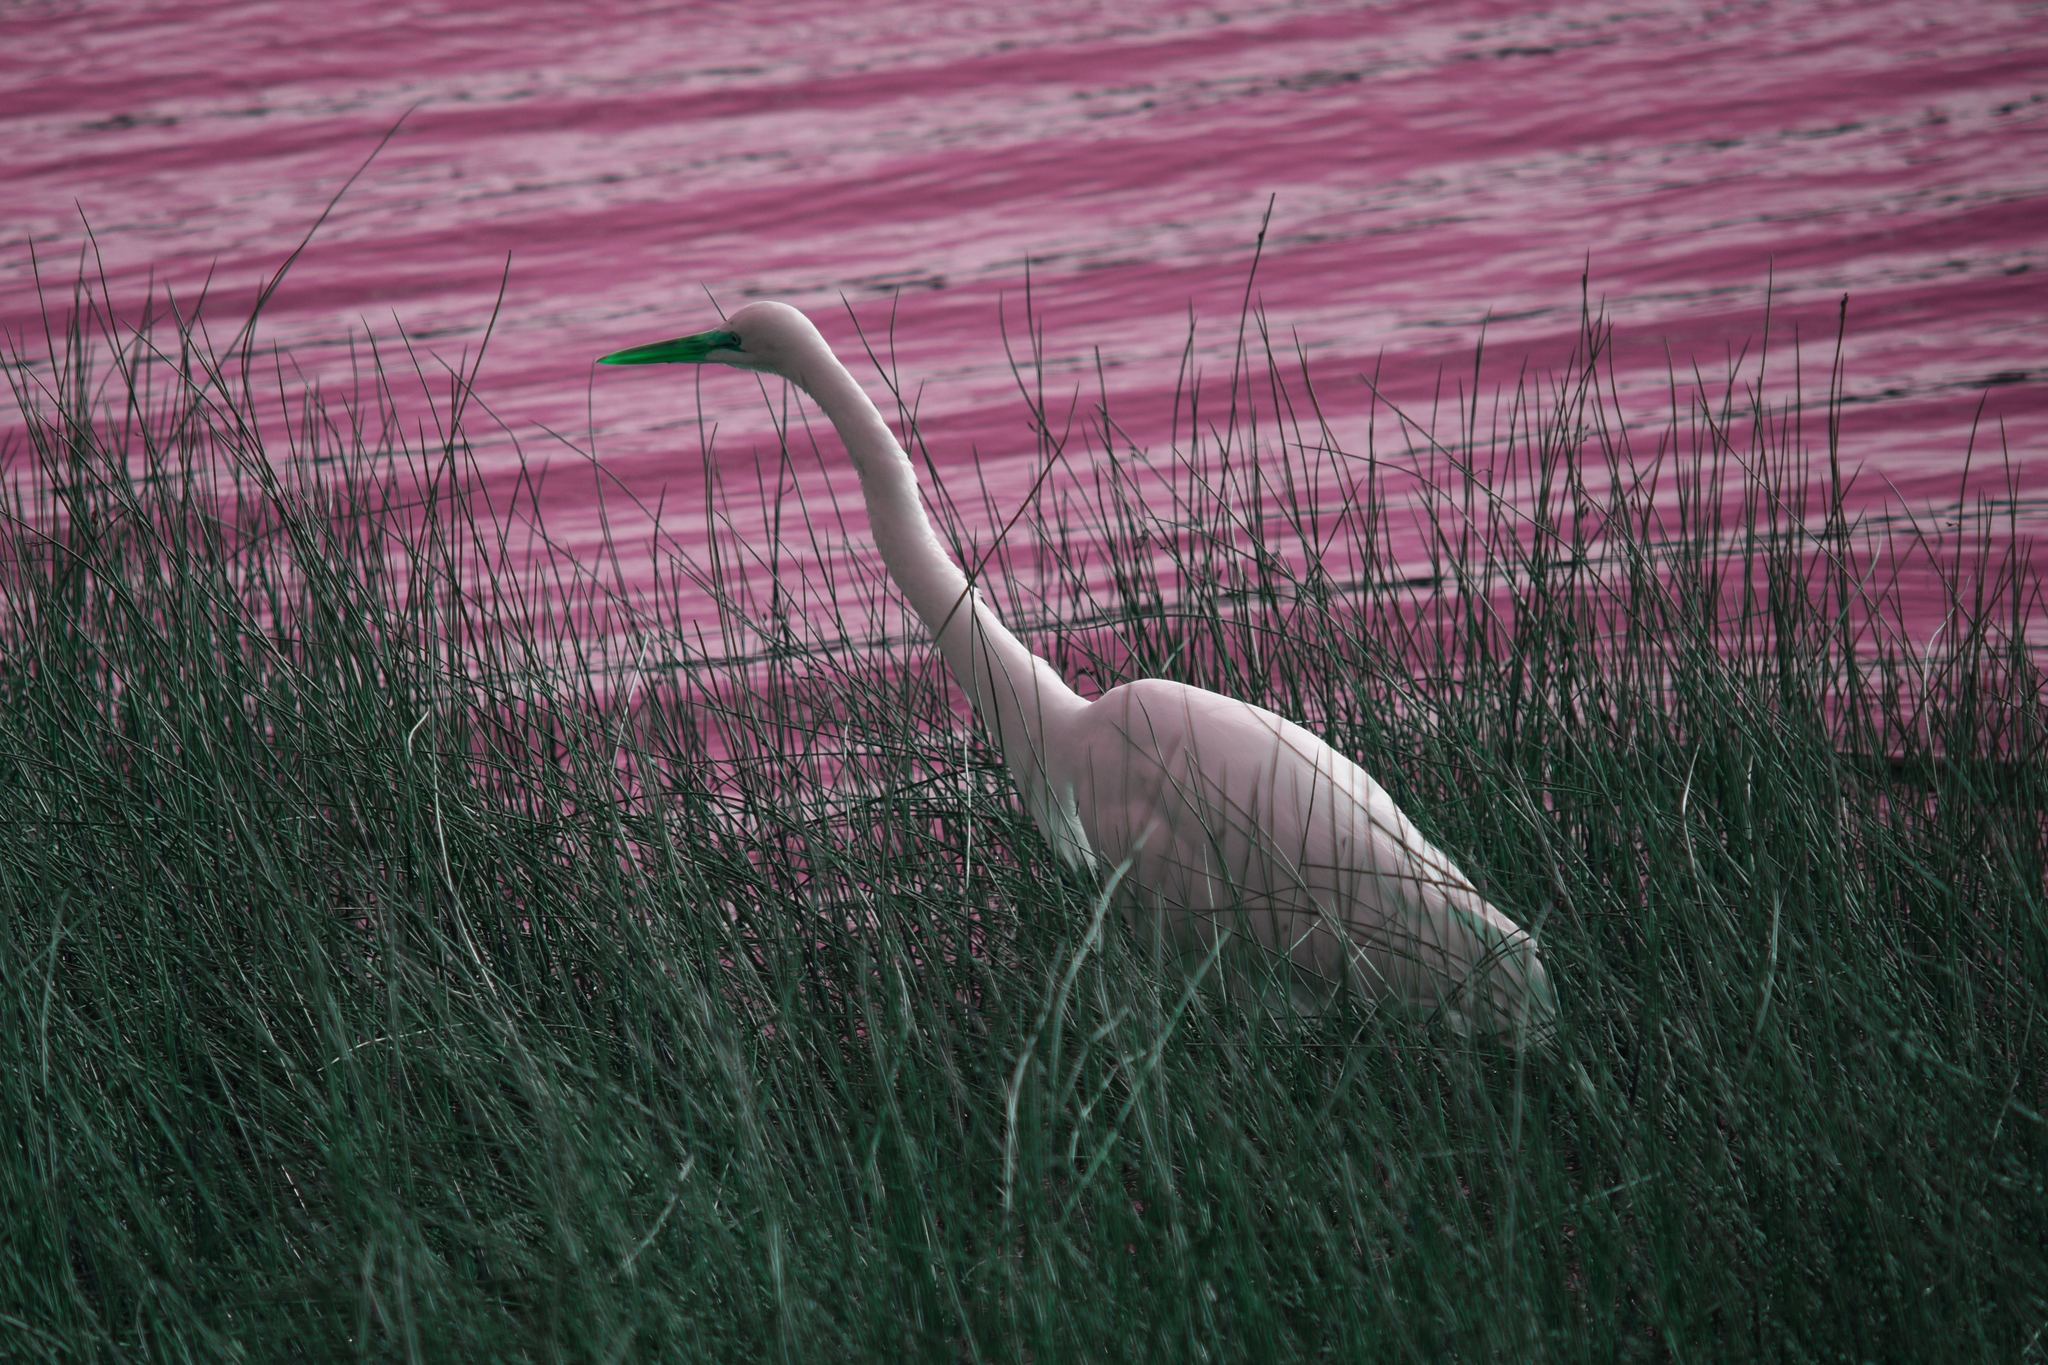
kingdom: Animalia
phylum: Chordata
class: Aves
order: Pelecaniformes
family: Ardeidae
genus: Ardea
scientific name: Ardea alba
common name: Great egret
